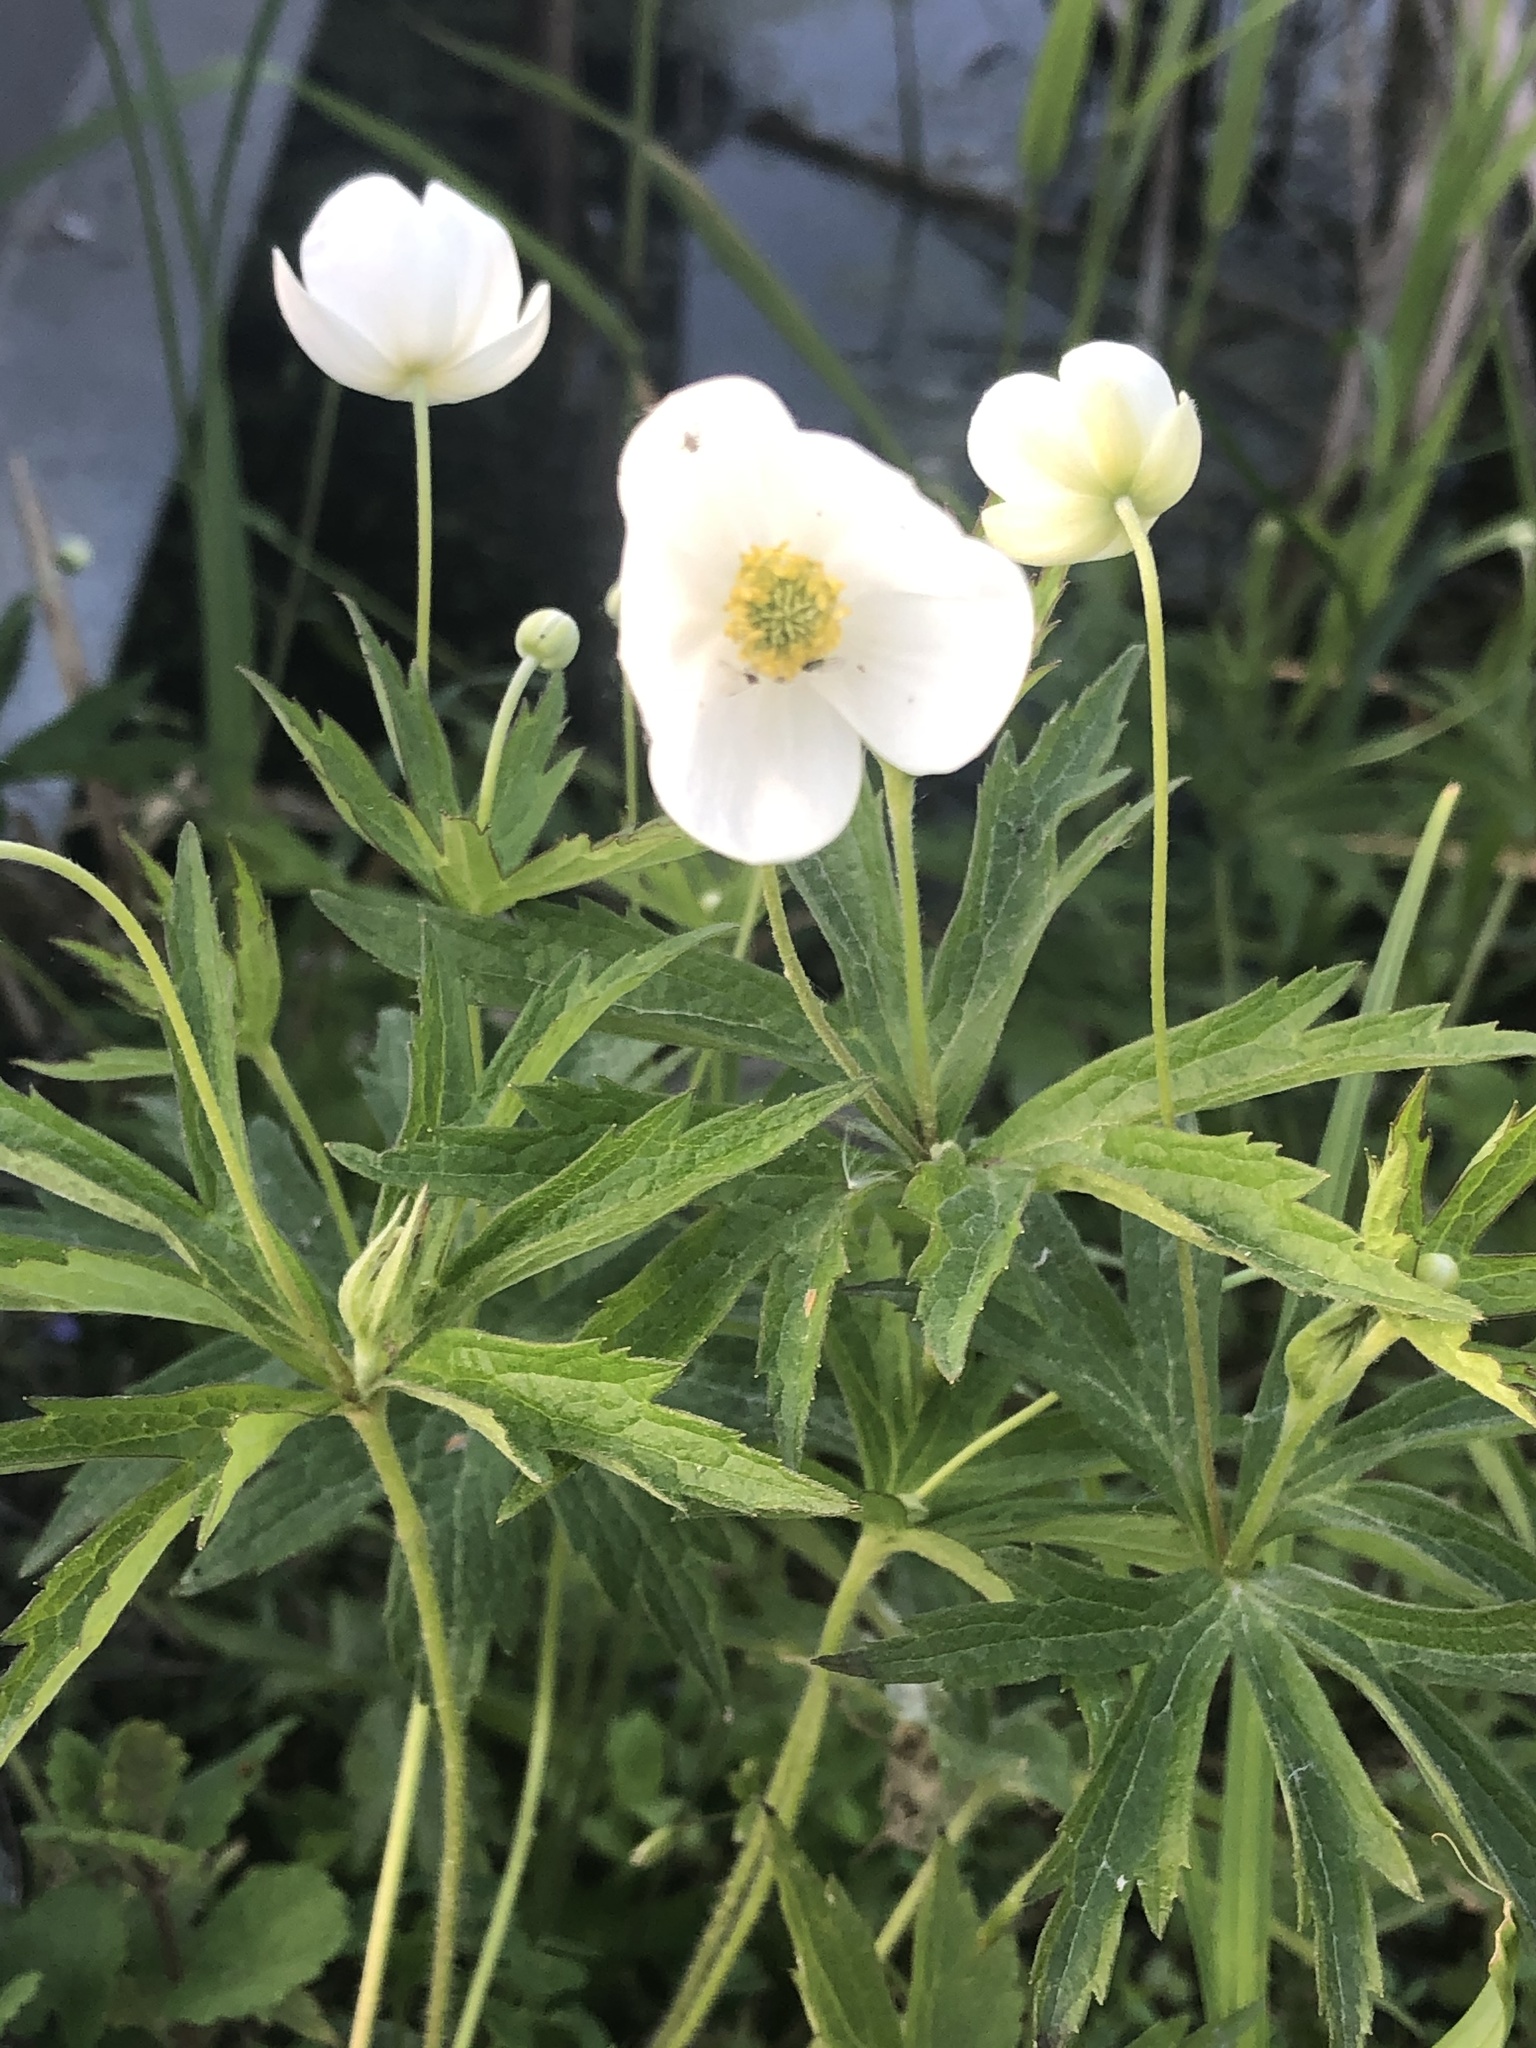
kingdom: Plantae
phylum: Tracheophyta
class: Magnoliopsida
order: Ranunculales
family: Ranunculaceae
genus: Anemonastrum
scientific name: Anemonastrum canadense
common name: Canada anemone
